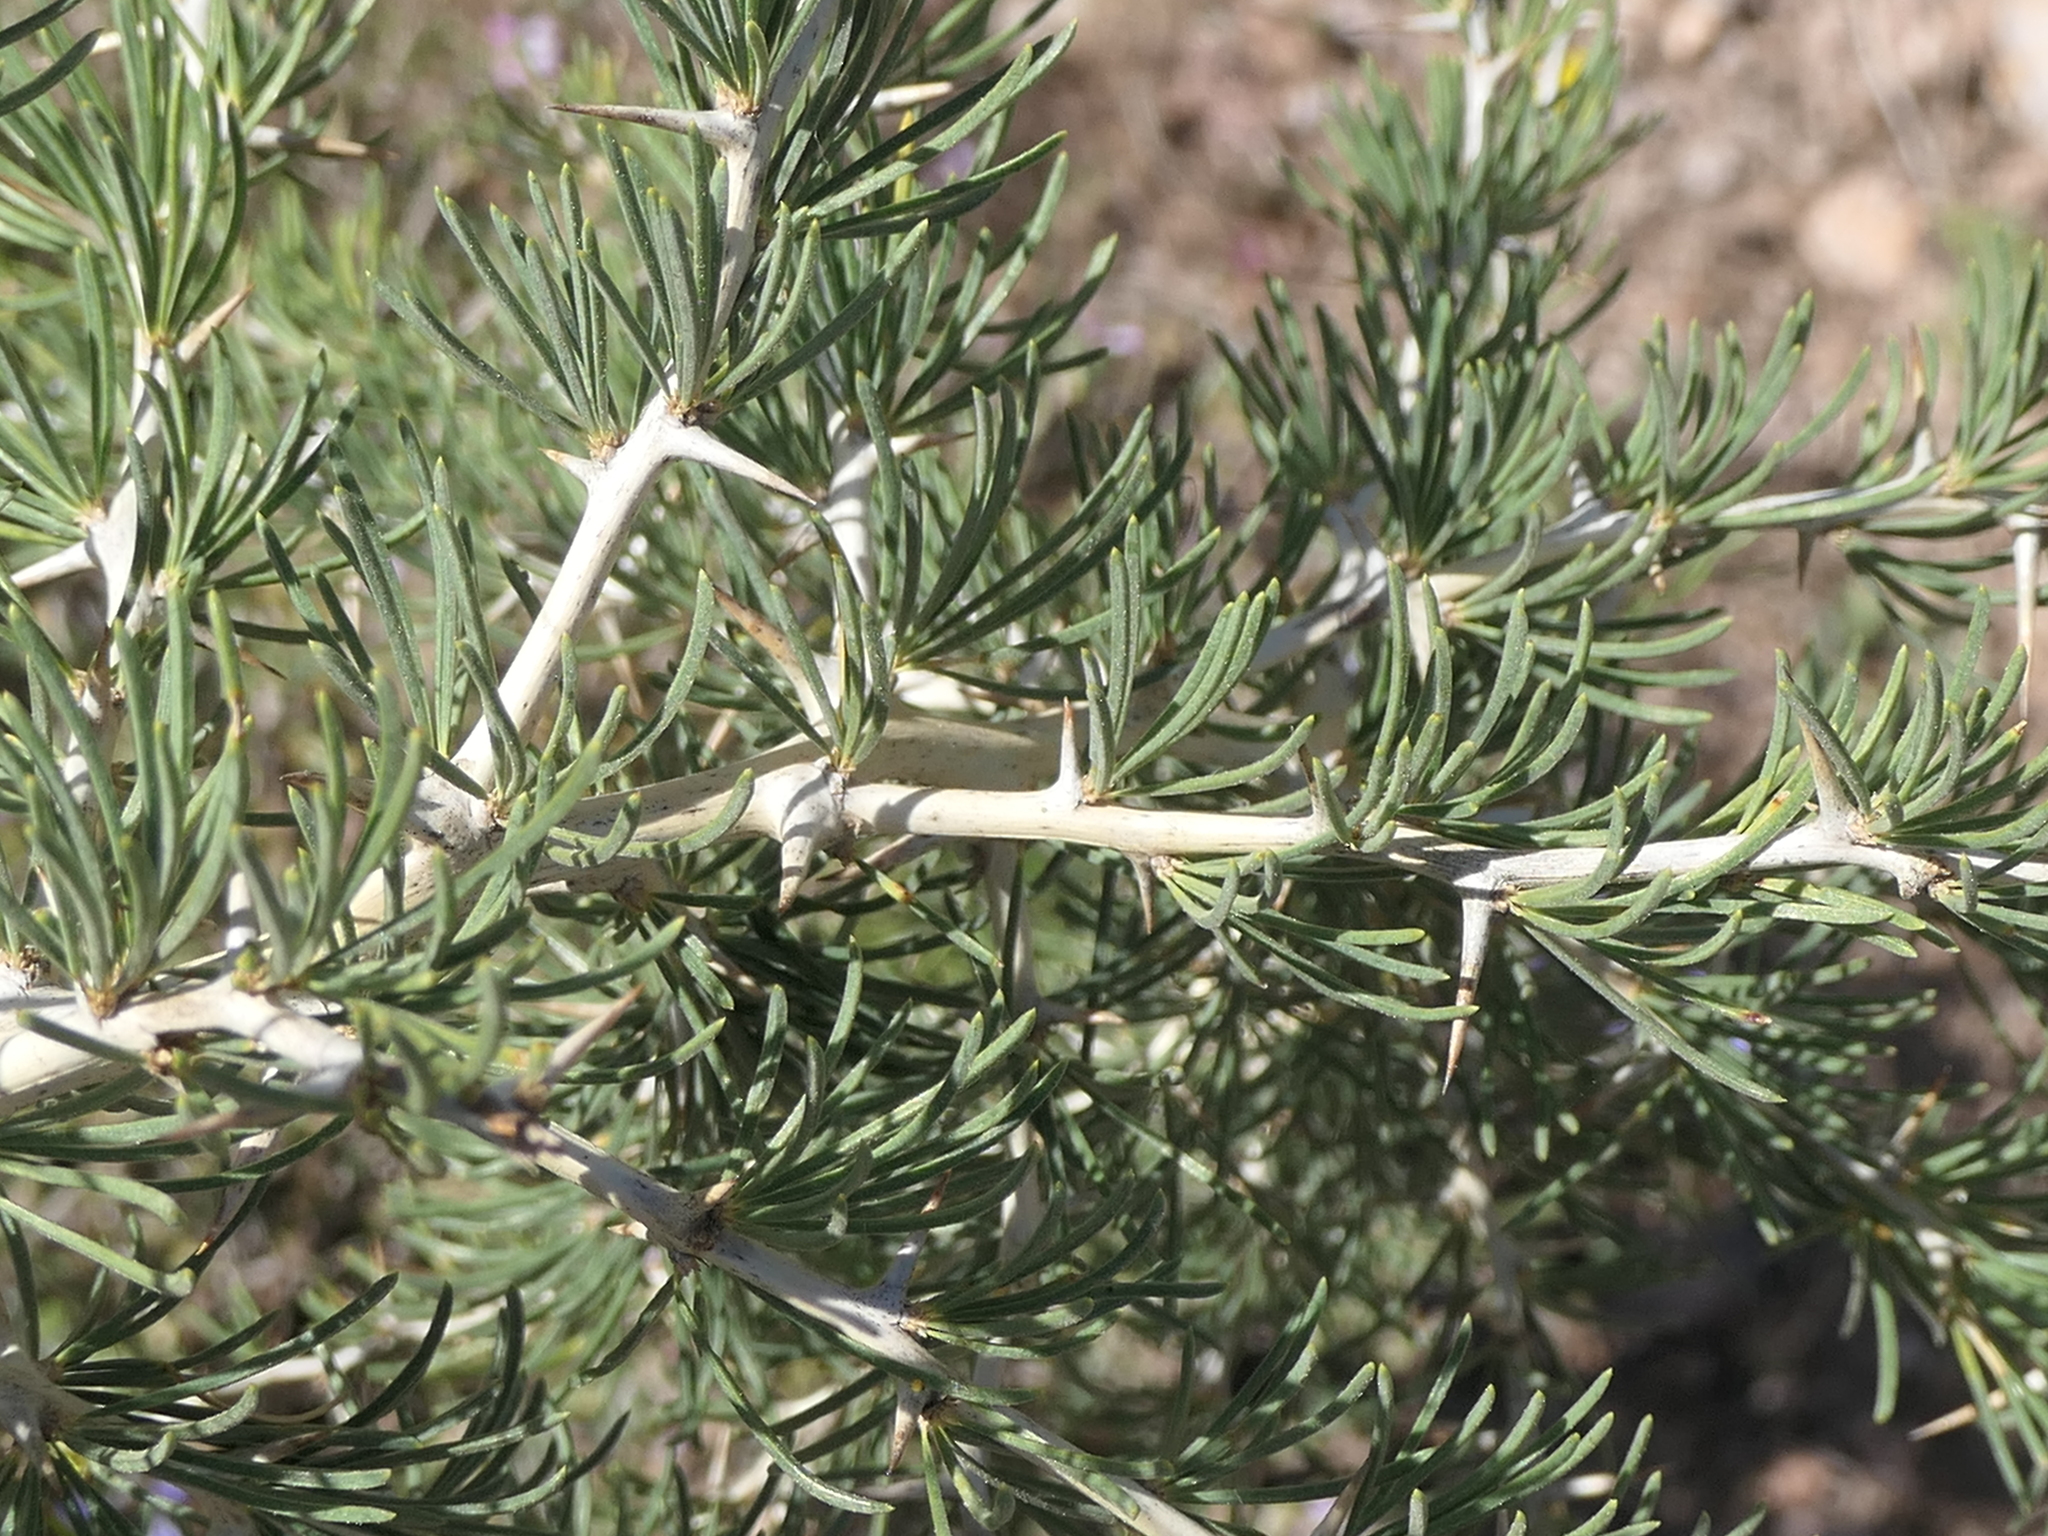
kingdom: Plantae
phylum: Tracheophyta
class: Liliopsida
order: Asparagales
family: Asparagaceae
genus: Asparagus
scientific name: Asparagus albus
